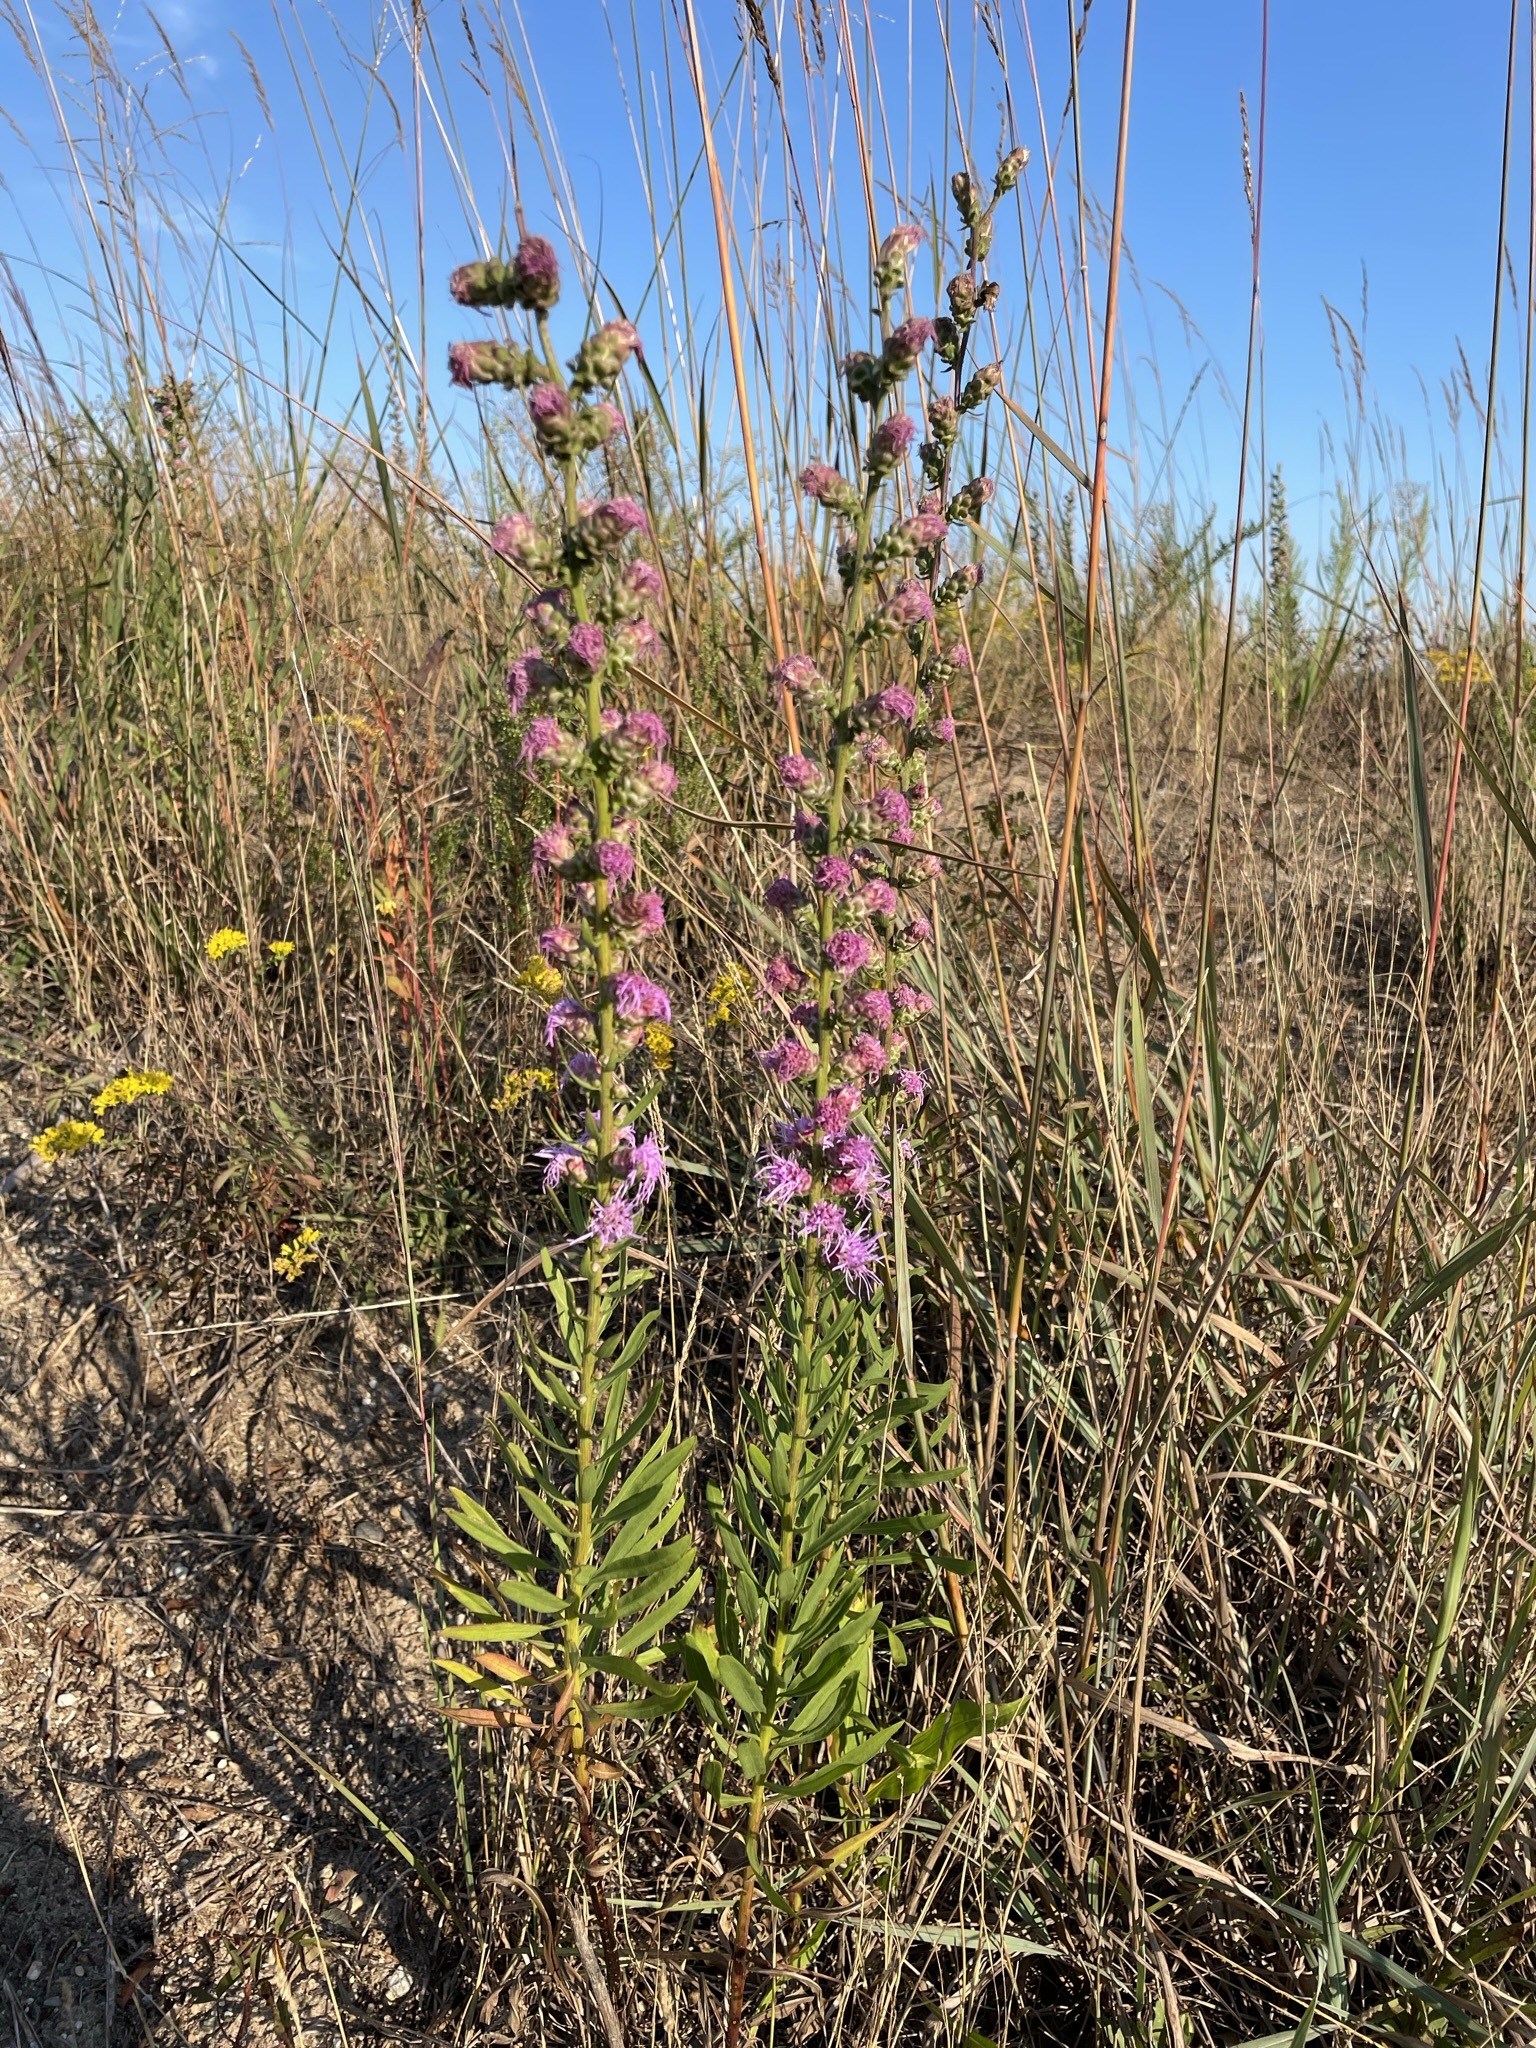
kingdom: Plantae
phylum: Tracheophyta
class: Magnoliopsida
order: Asterales
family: Asteraceae
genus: Liatris
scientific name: Liatris aspera
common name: Lacerate blazing-star
